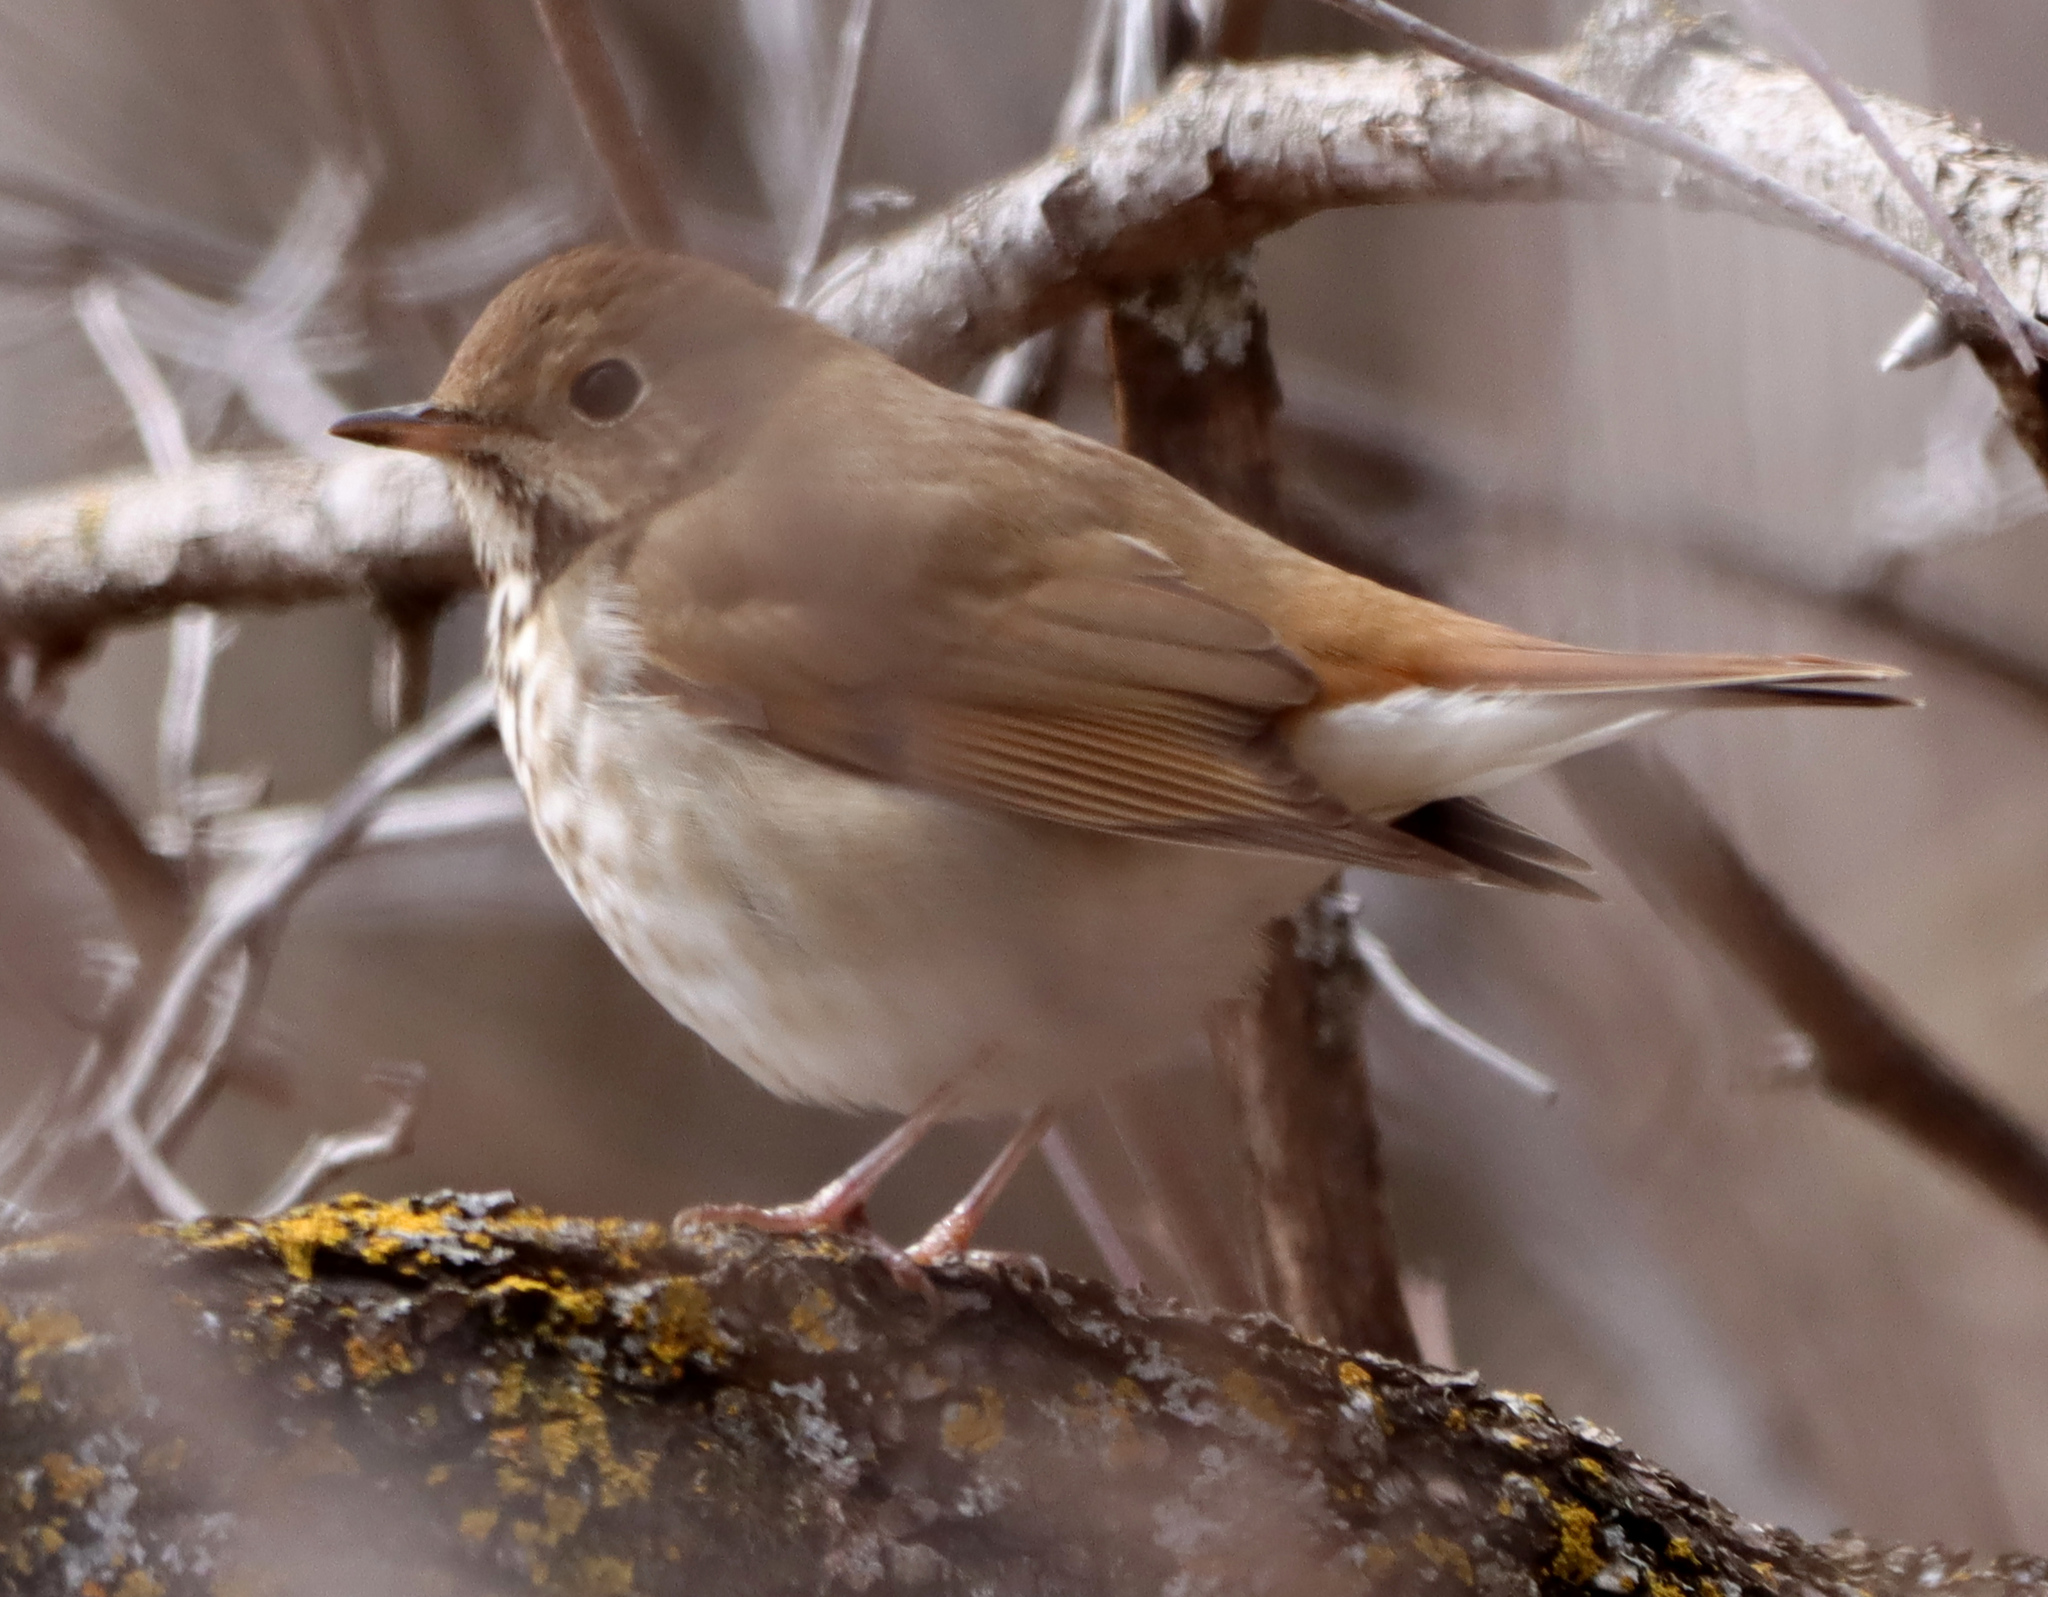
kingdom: Animalia
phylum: Chordata
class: Aves
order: Passeriformes
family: Turdidae
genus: Catharus
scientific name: Catharus guttatus
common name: Hermit thrush
